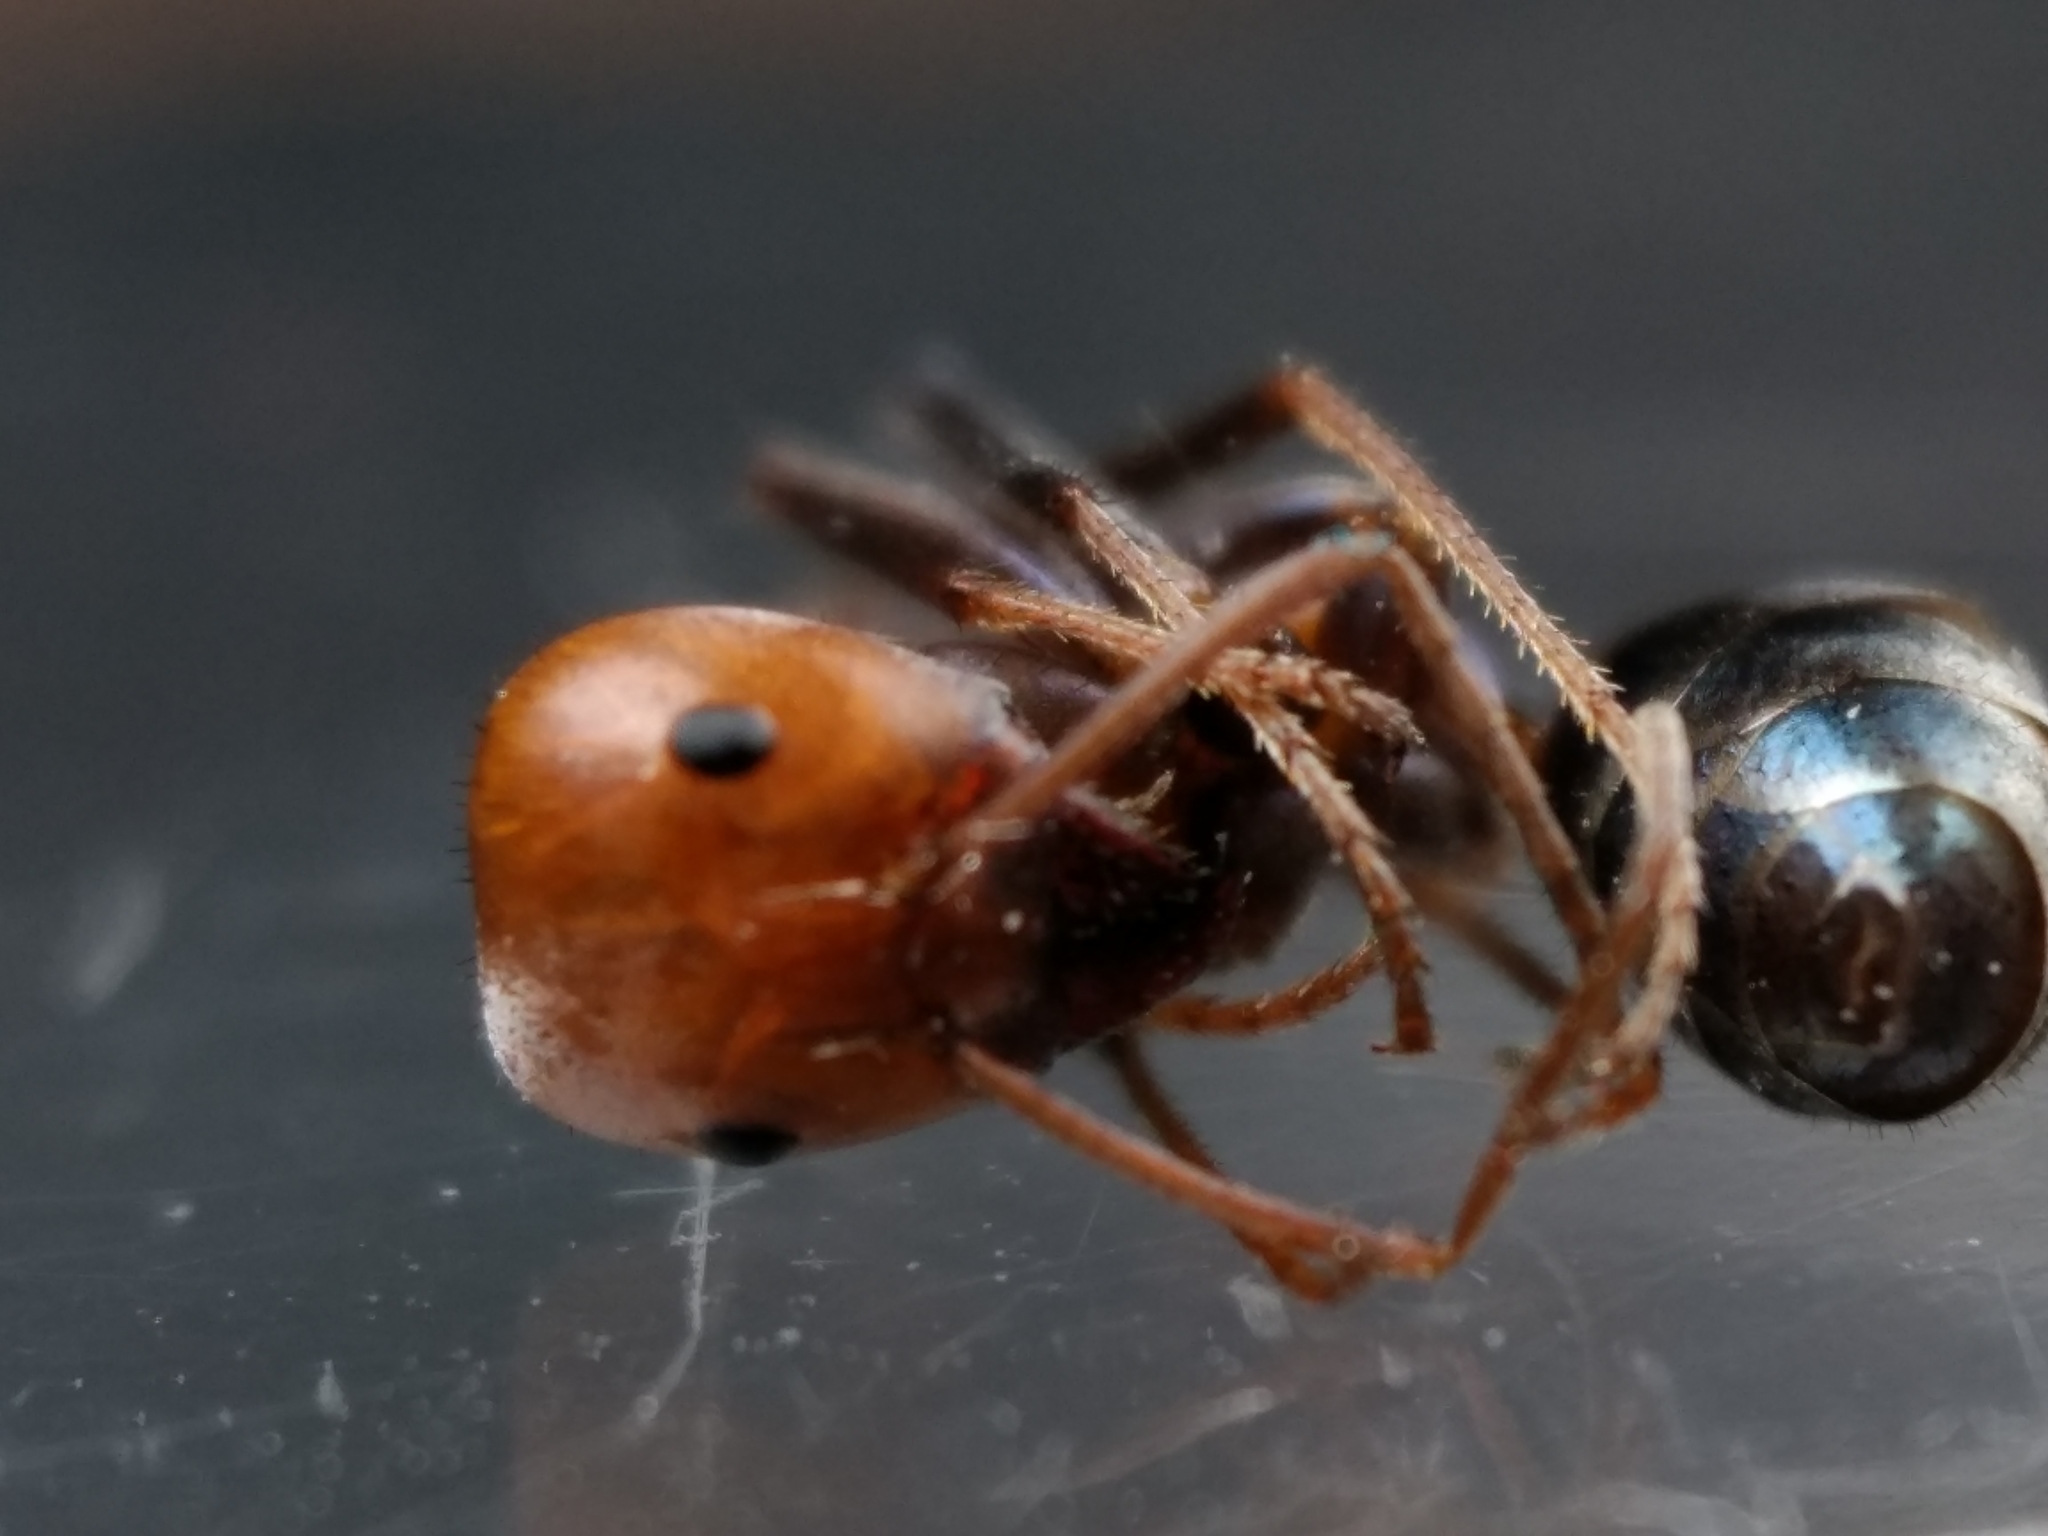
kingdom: Animalia
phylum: Arthropoda
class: Insecta
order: Hymenoptera
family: Formicidae
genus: Iridomyrmex
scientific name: Iridomyrmex sanguineus
